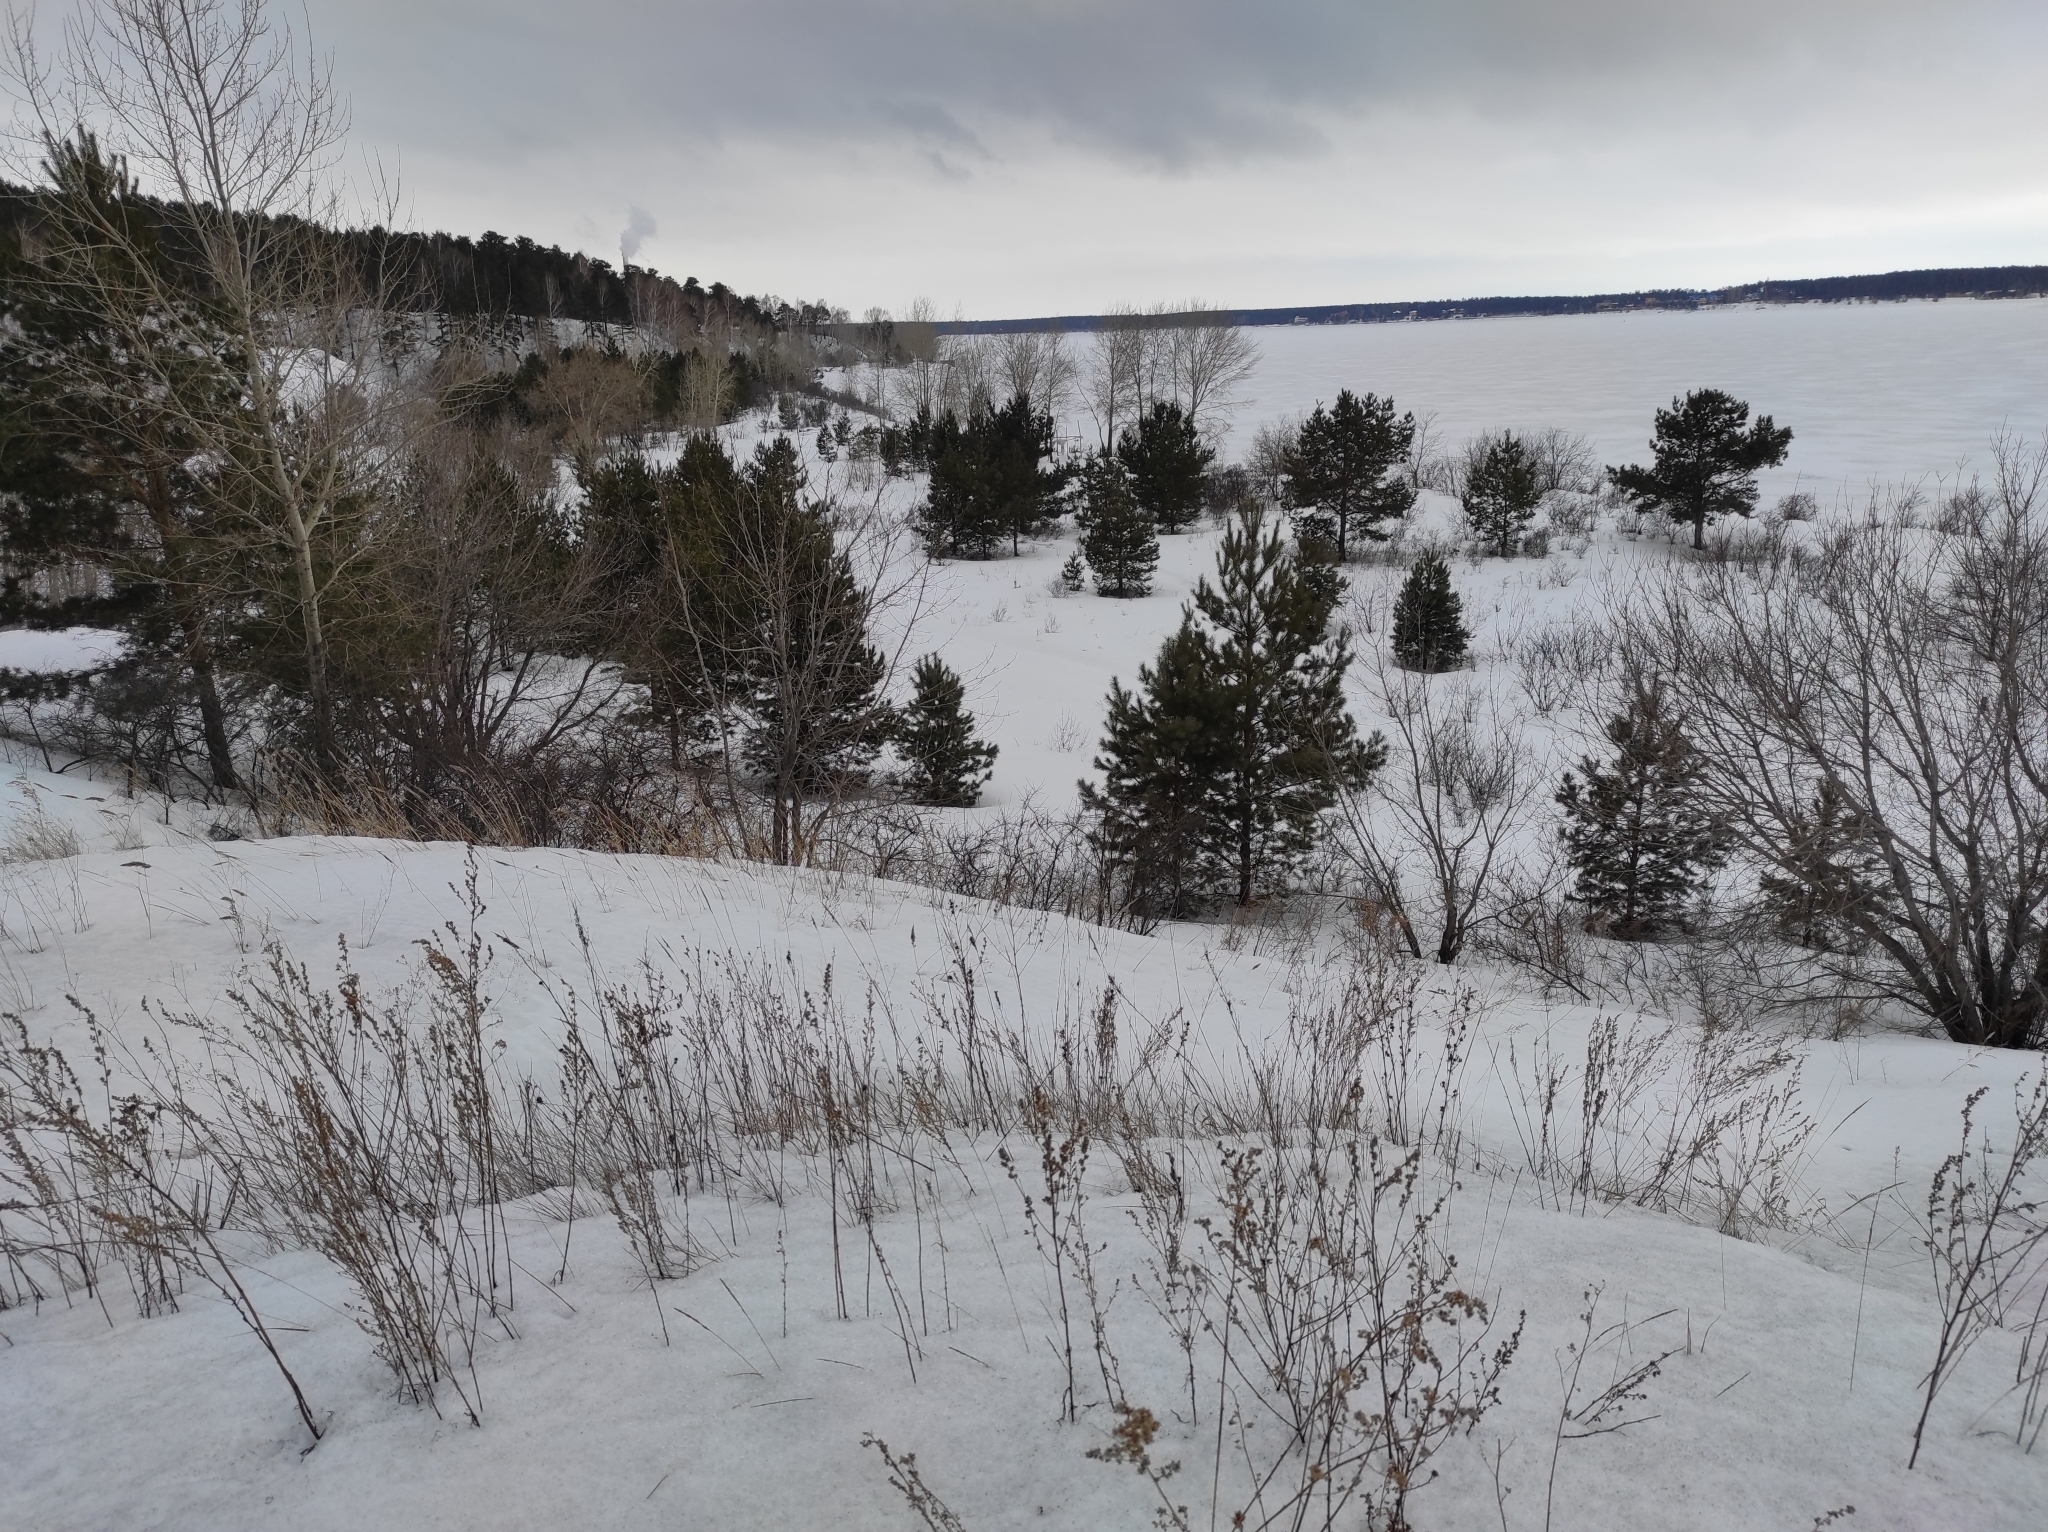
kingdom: Plantae
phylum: Tracheophyta
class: Pinopsida
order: Pinales
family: Pinaceae
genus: Pinus
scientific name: Pinus sylvestris
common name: Scots pine
